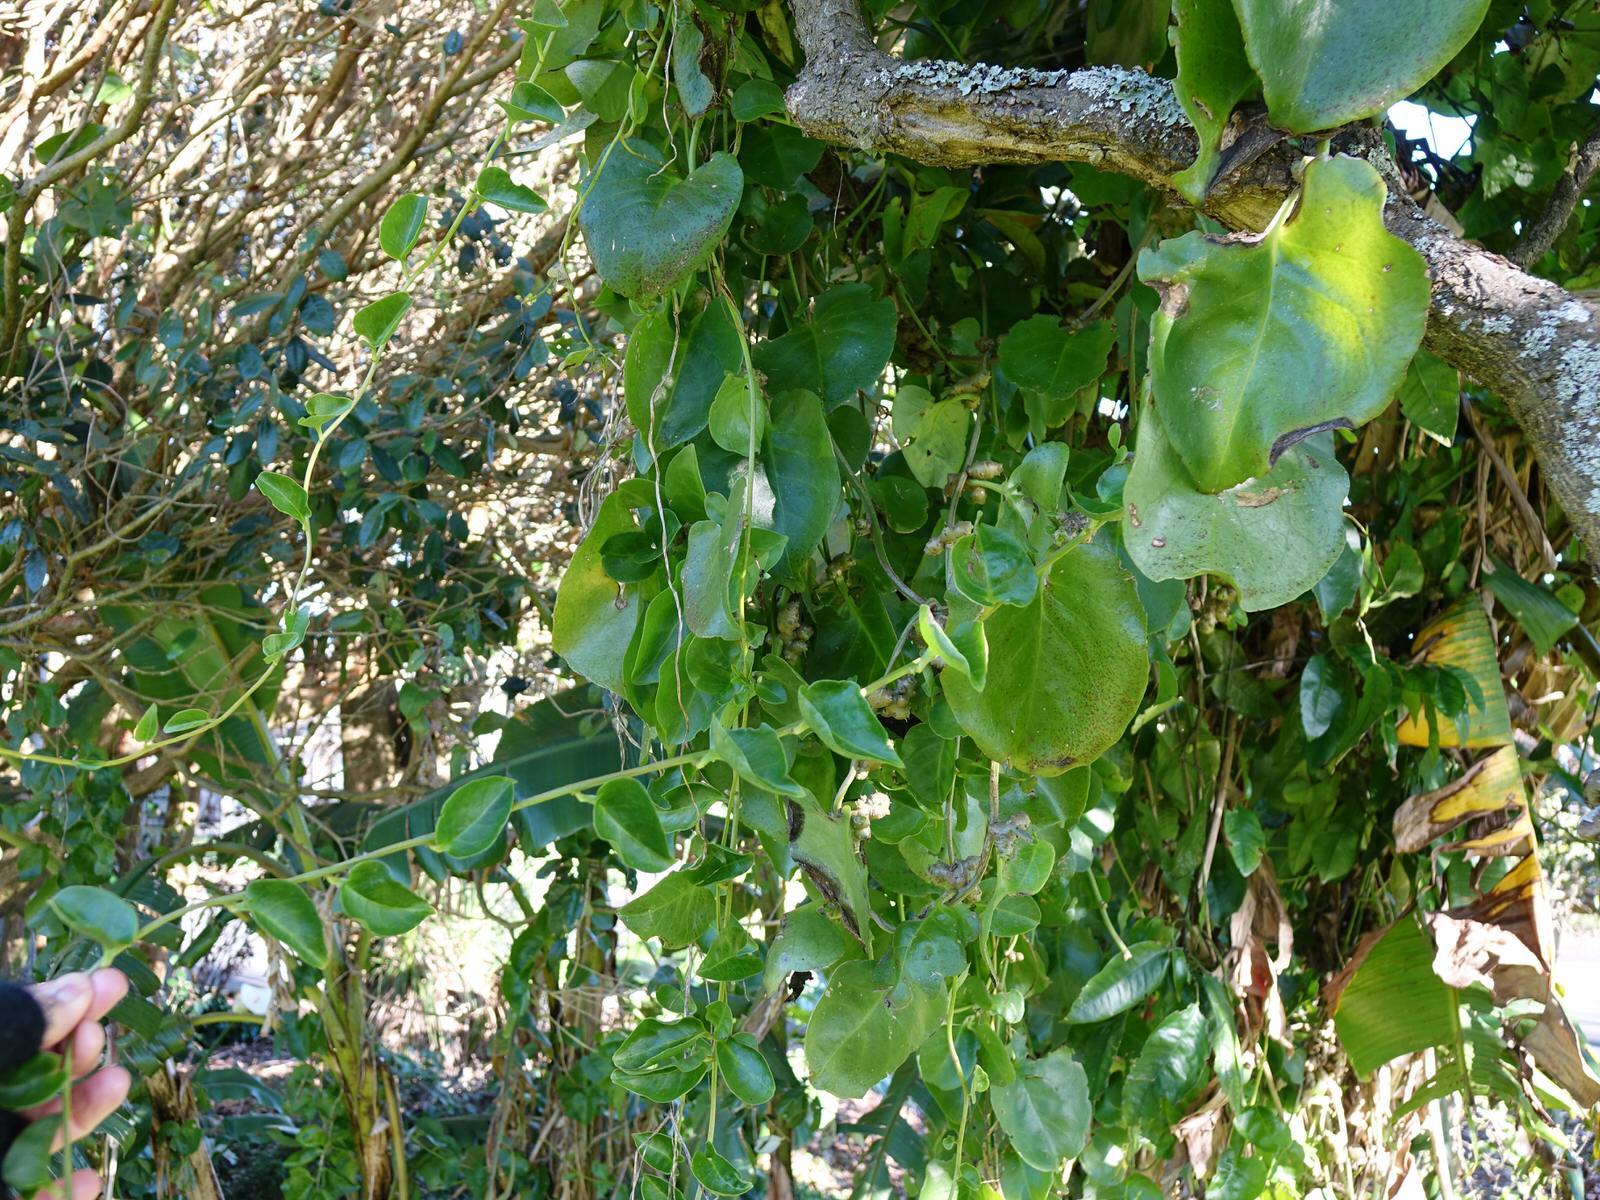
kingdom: Plantae
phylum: Tracheophyta
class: Magnoliopsida
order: Caryophyllales
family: Basellaceae
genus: Anredera
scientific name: Anredera cordifolia
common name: Heartleaf madeiravine
